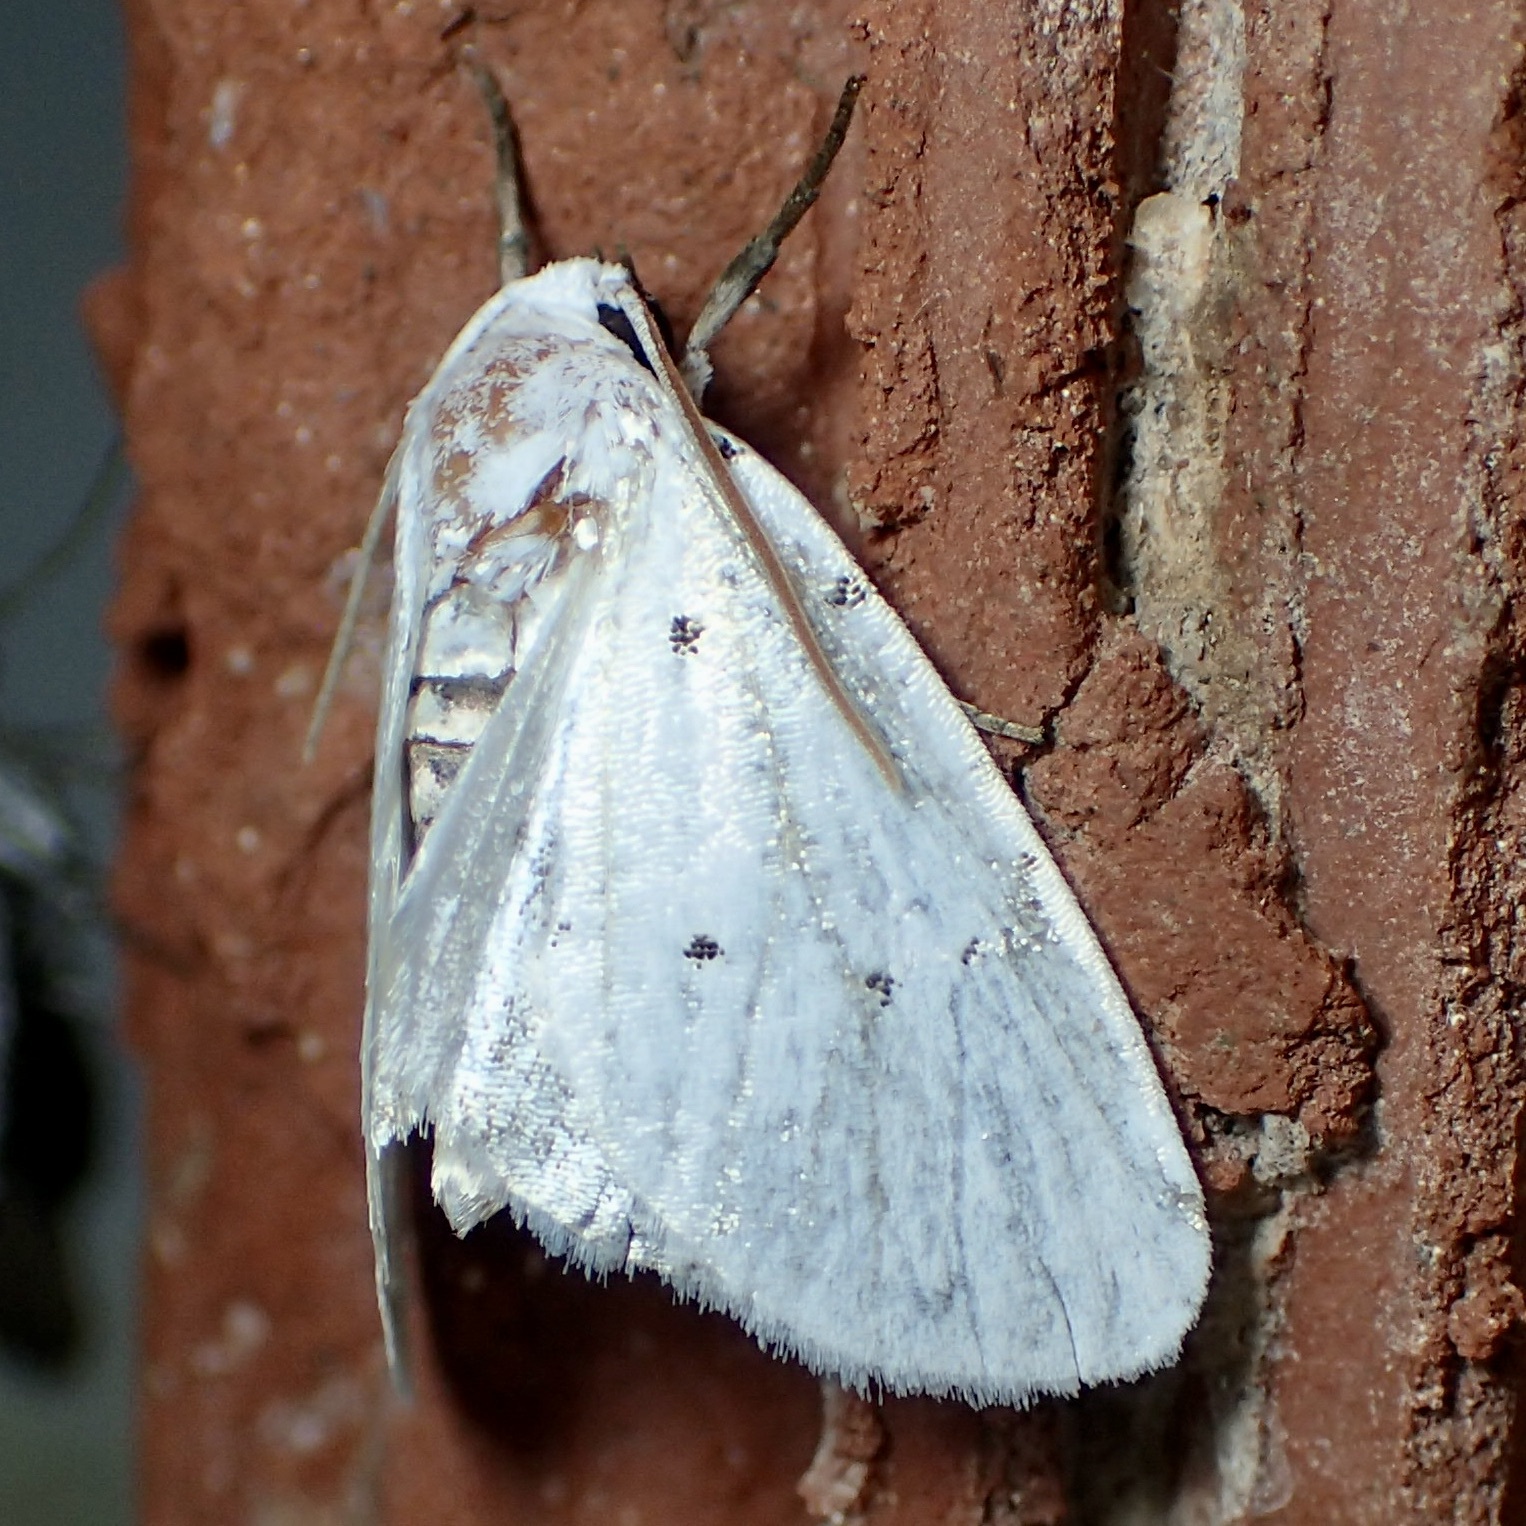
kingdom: Animalia
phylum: Arthropoda
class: Insecta
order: Lepidoptera
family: Noctuidae
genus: Homolagoa
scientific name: Homolagoa grotelliformis
